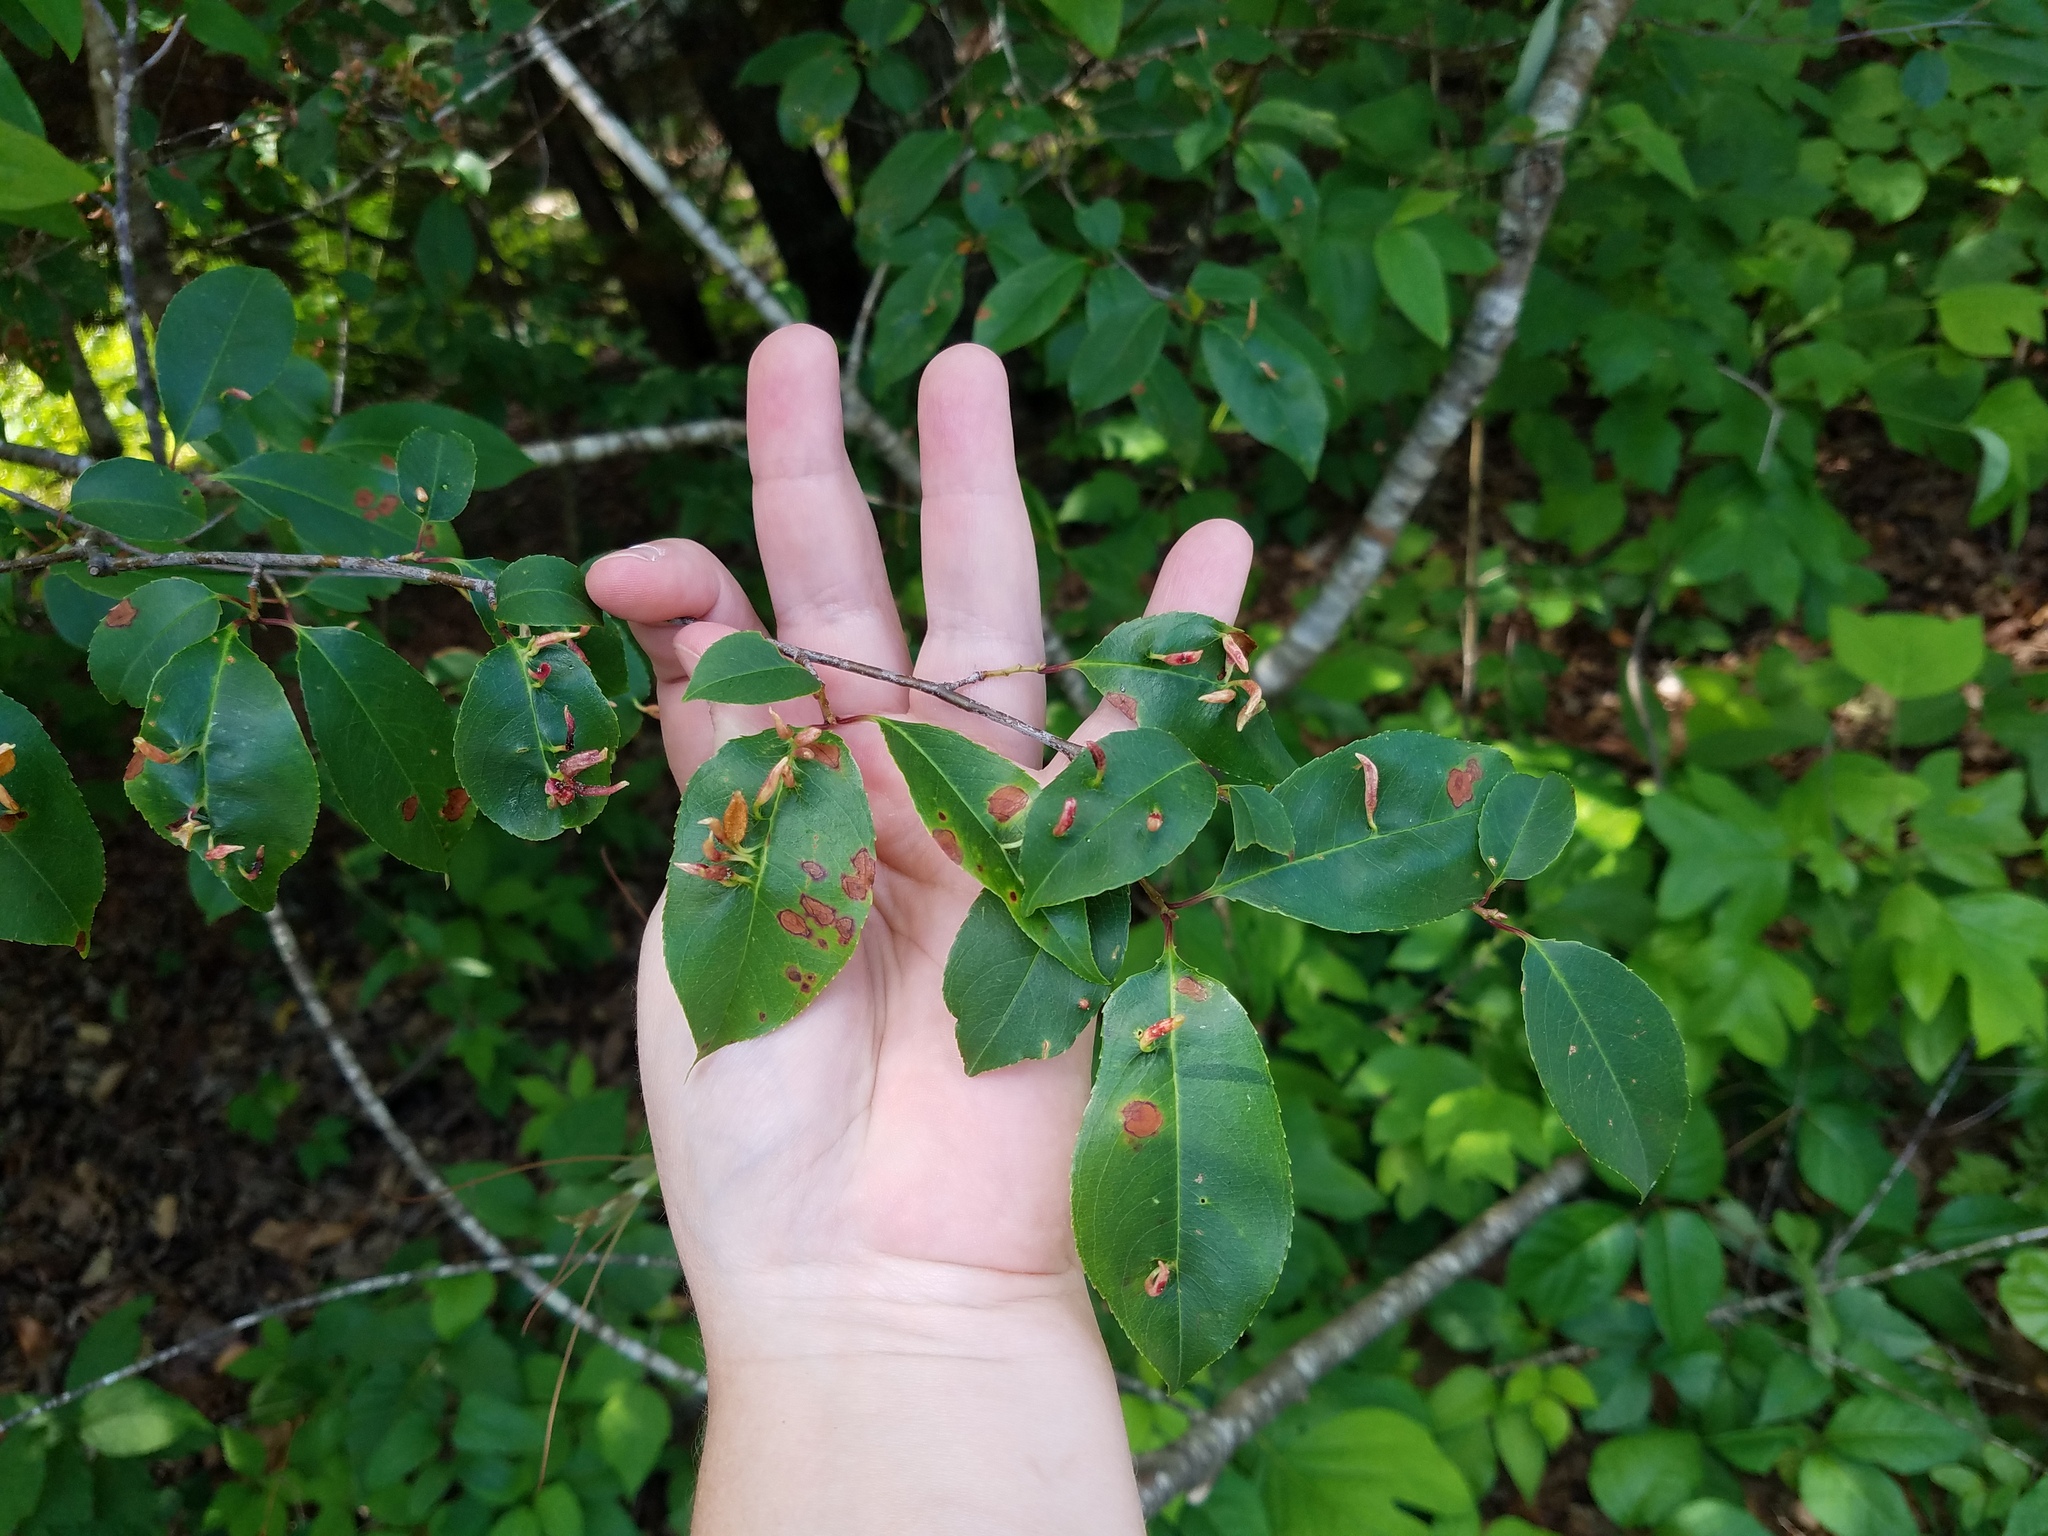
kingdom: Animalia
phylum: Arthropoda
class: Arachnida
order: Trombidiformes
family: Eriophyidae
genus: Eriophyes
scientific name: Eriophyes
